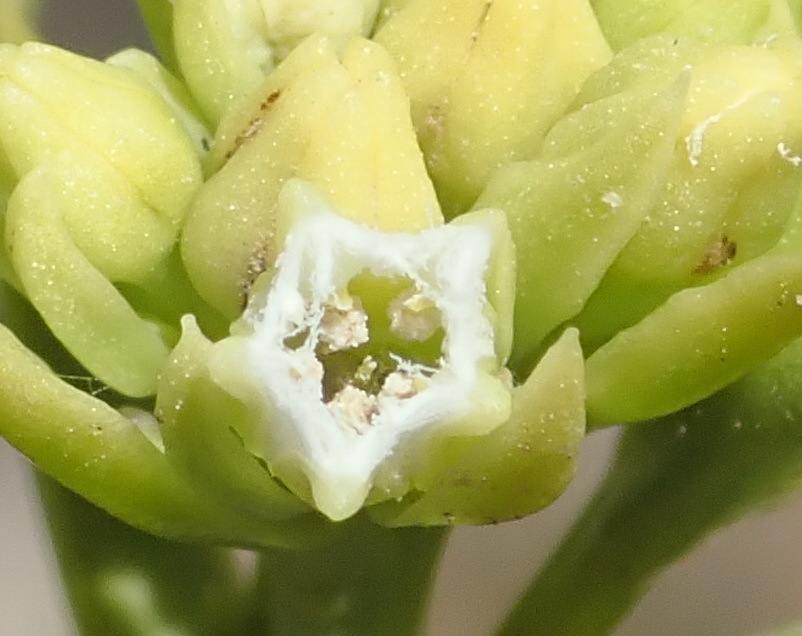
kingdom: Plantae
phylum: Tracheophyta
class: Magnoliopsida
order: Santalales
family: Thesiaceae
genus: Thesium
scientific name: Thesium strictum
